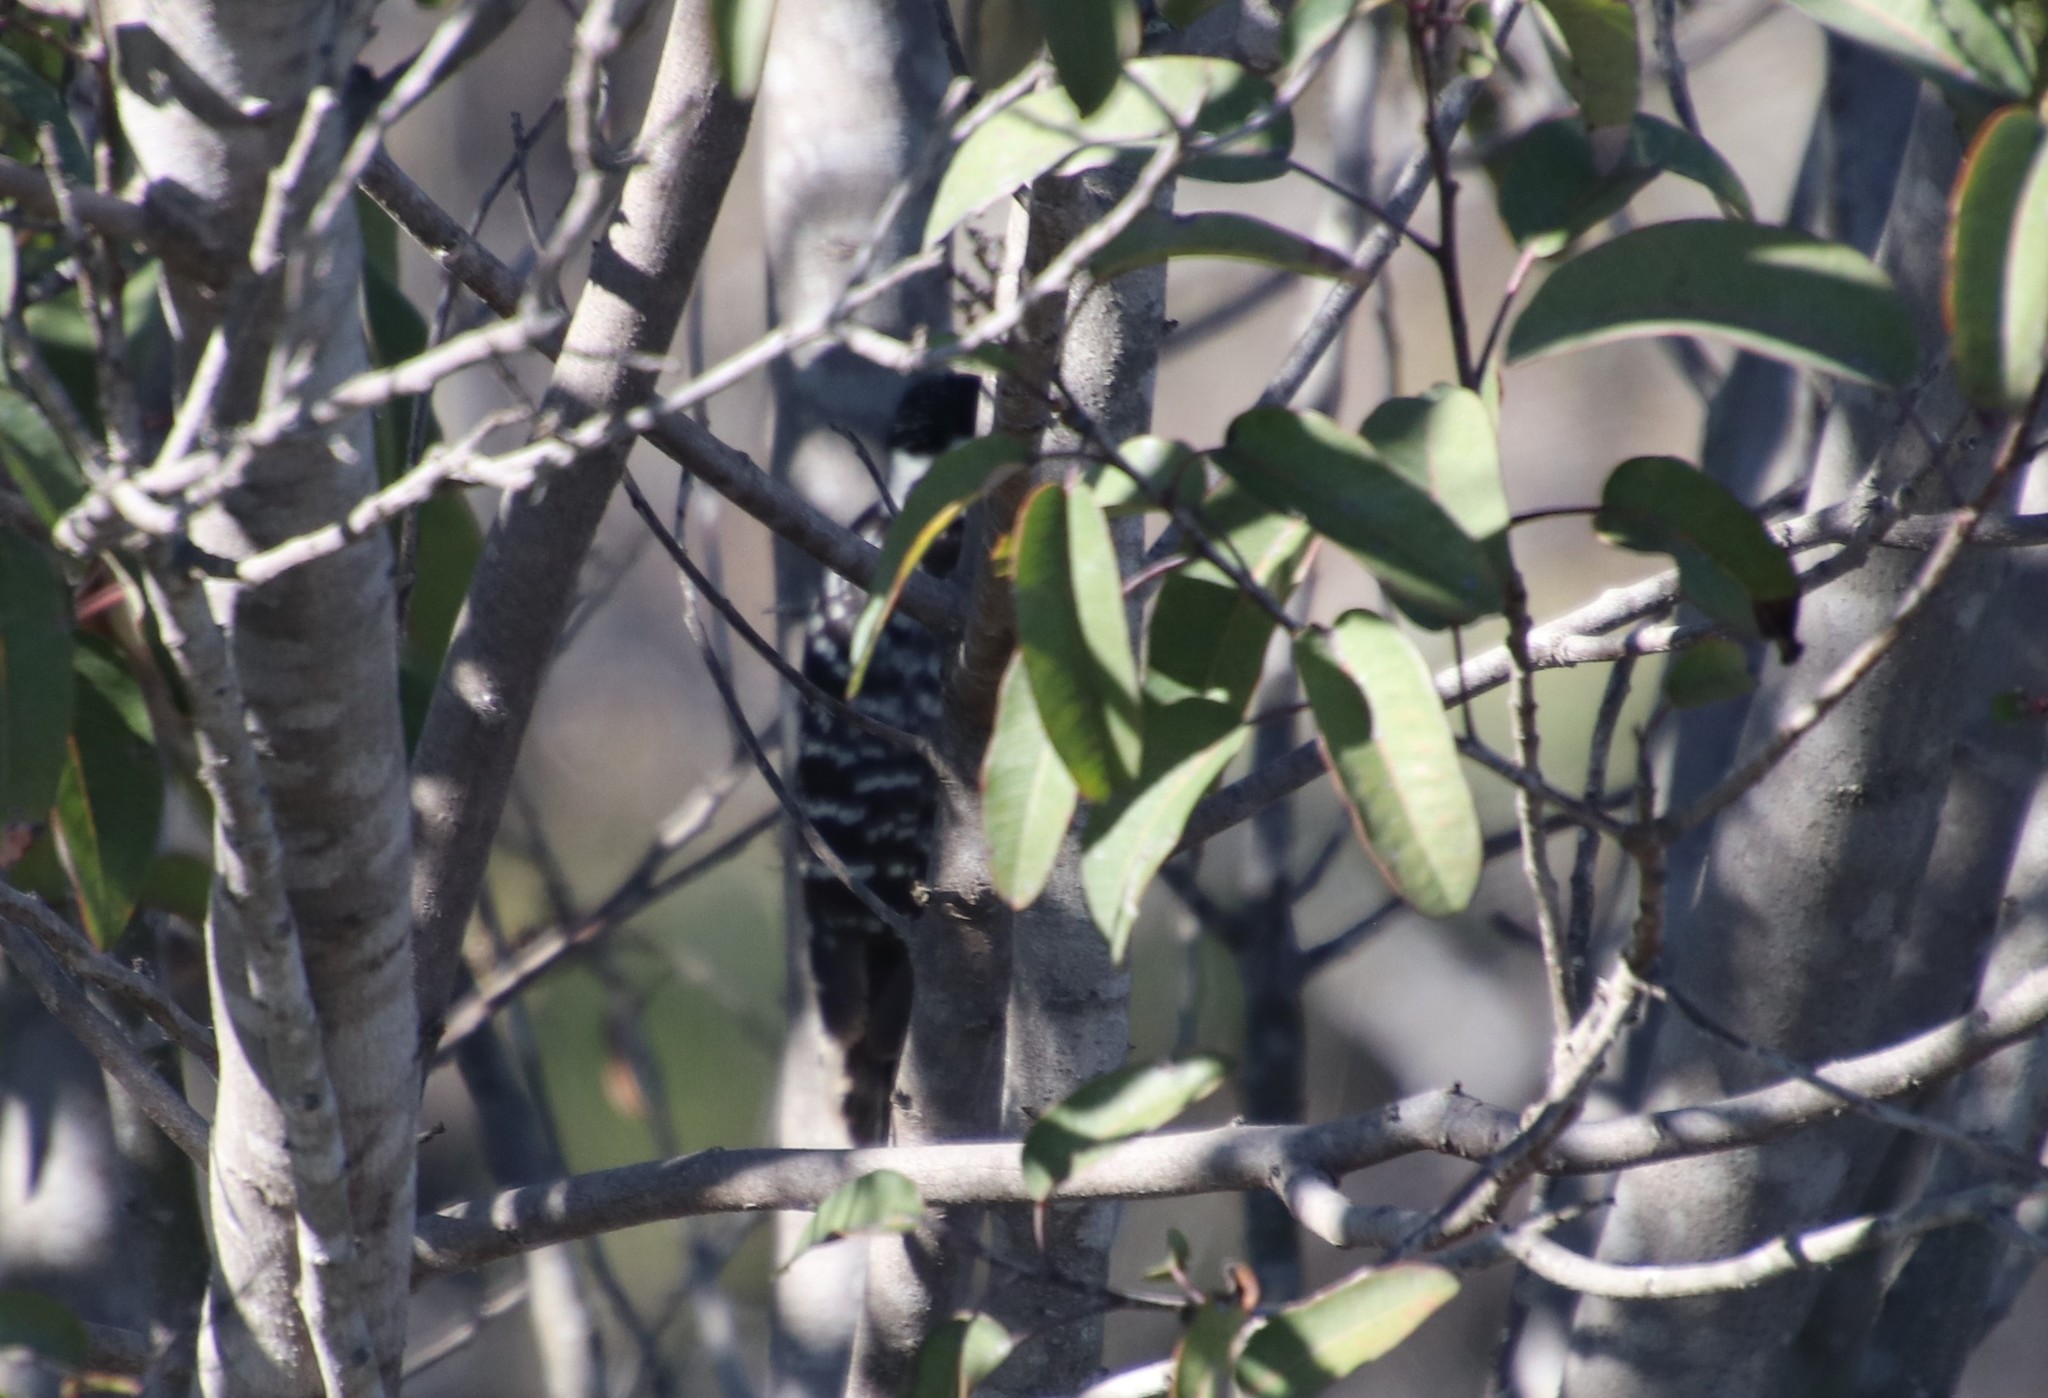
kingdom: Animalia
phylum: Chordata
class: Aves
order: Piciformes
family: Picidae
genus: Dryobates
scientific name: Dryobates nuttallii
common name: Nuttall's woodpecker
